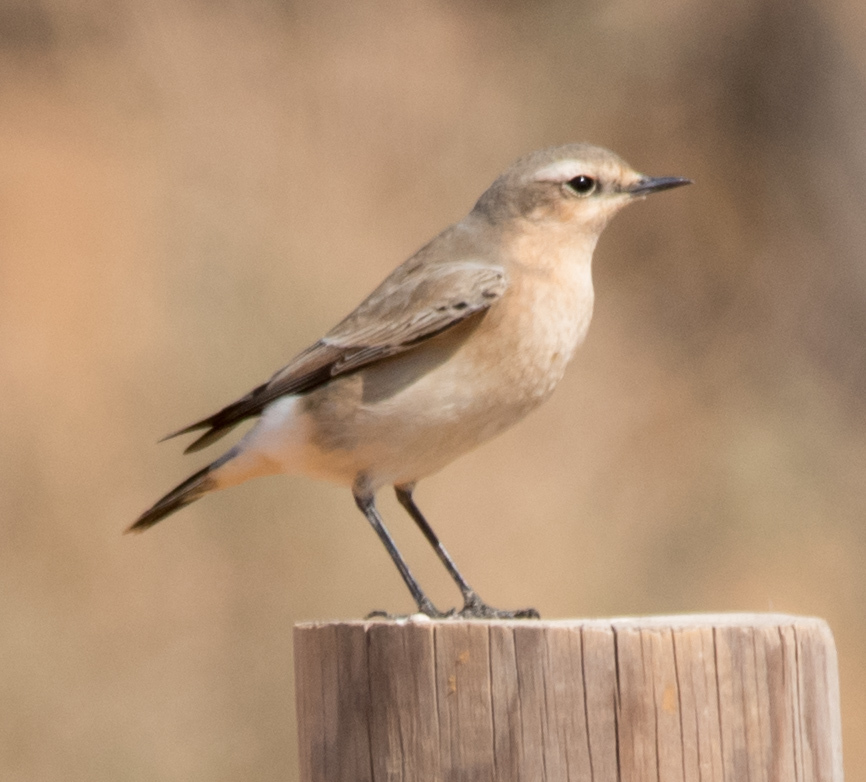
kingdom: Animalia
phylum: Chordata
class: Aves
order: Passeriformes
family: Muscicapidae
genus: Oenanthe
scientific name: Oenanthe oenanthe
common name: Northern wheatear
